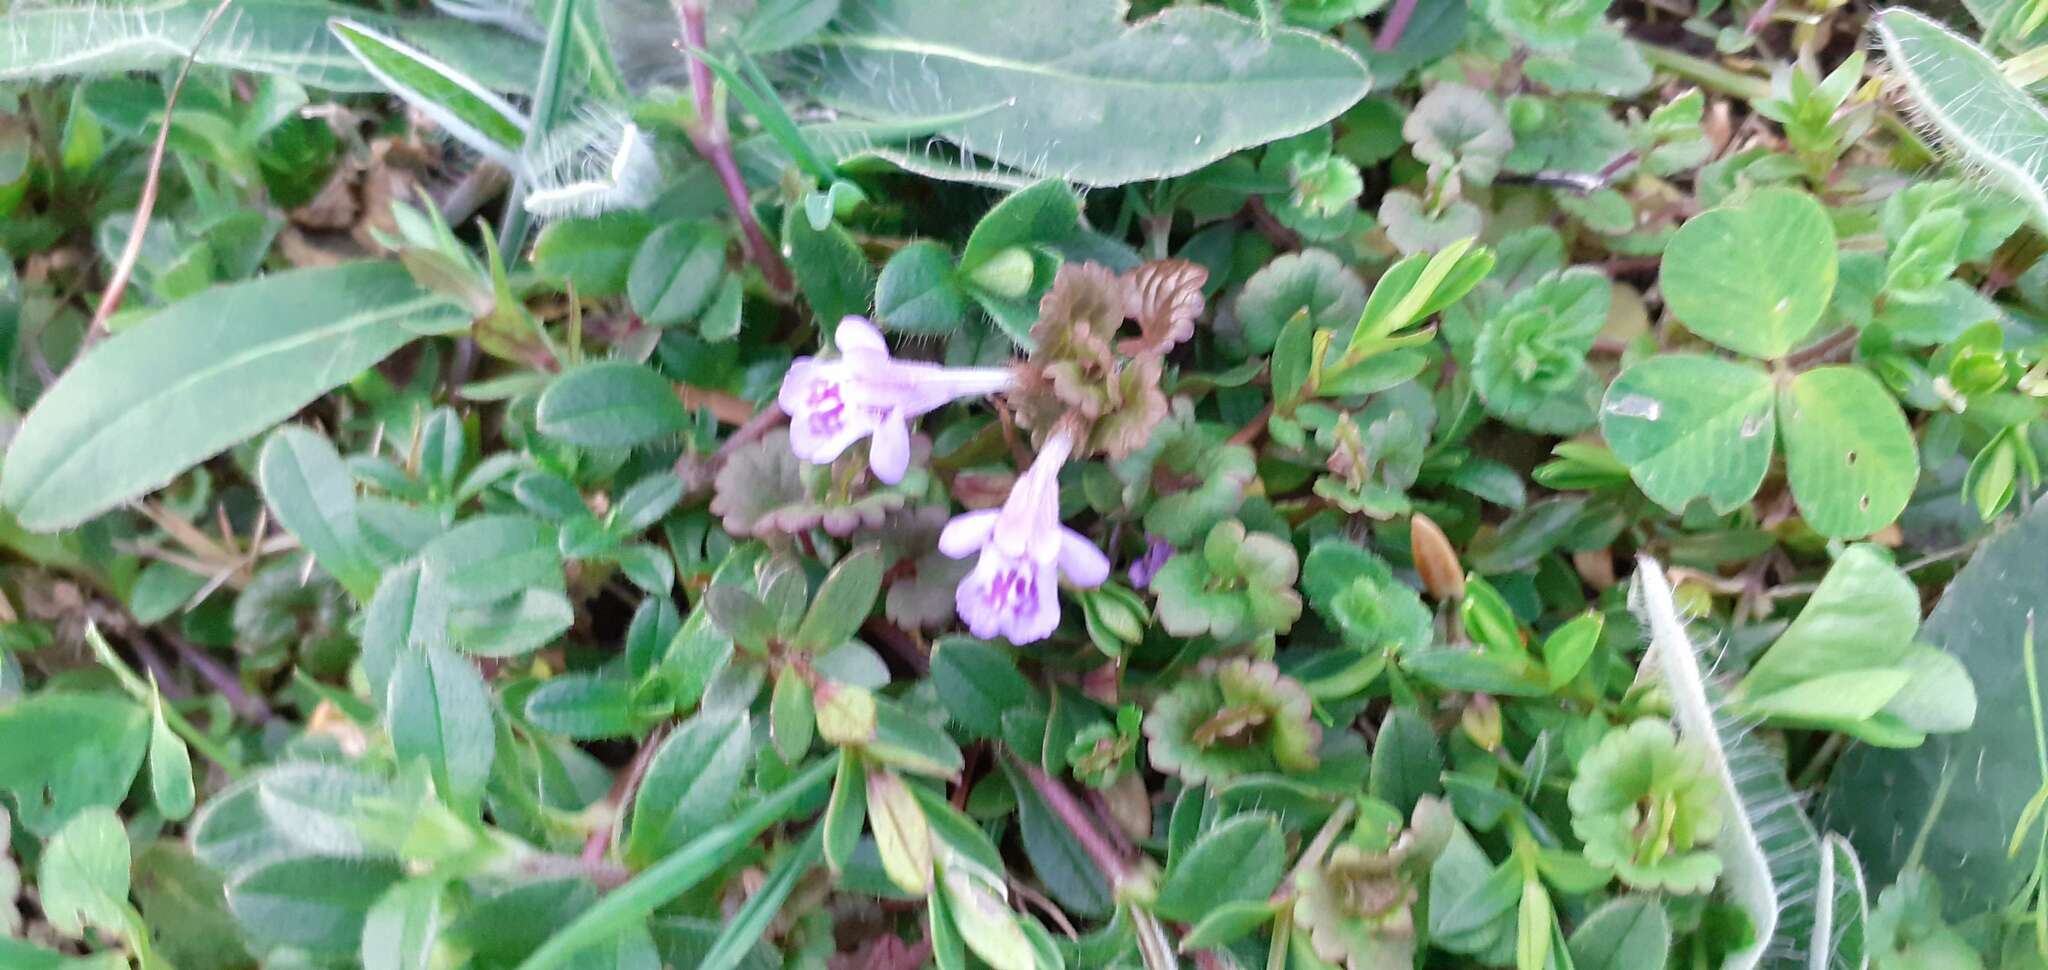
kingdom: Plantae
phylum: Tracheophyta
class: Magnoliopsida
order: Lamiales
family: Lamiaceae
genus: Glechoma
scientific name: Glechoma hederacea
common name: Ground ivy
